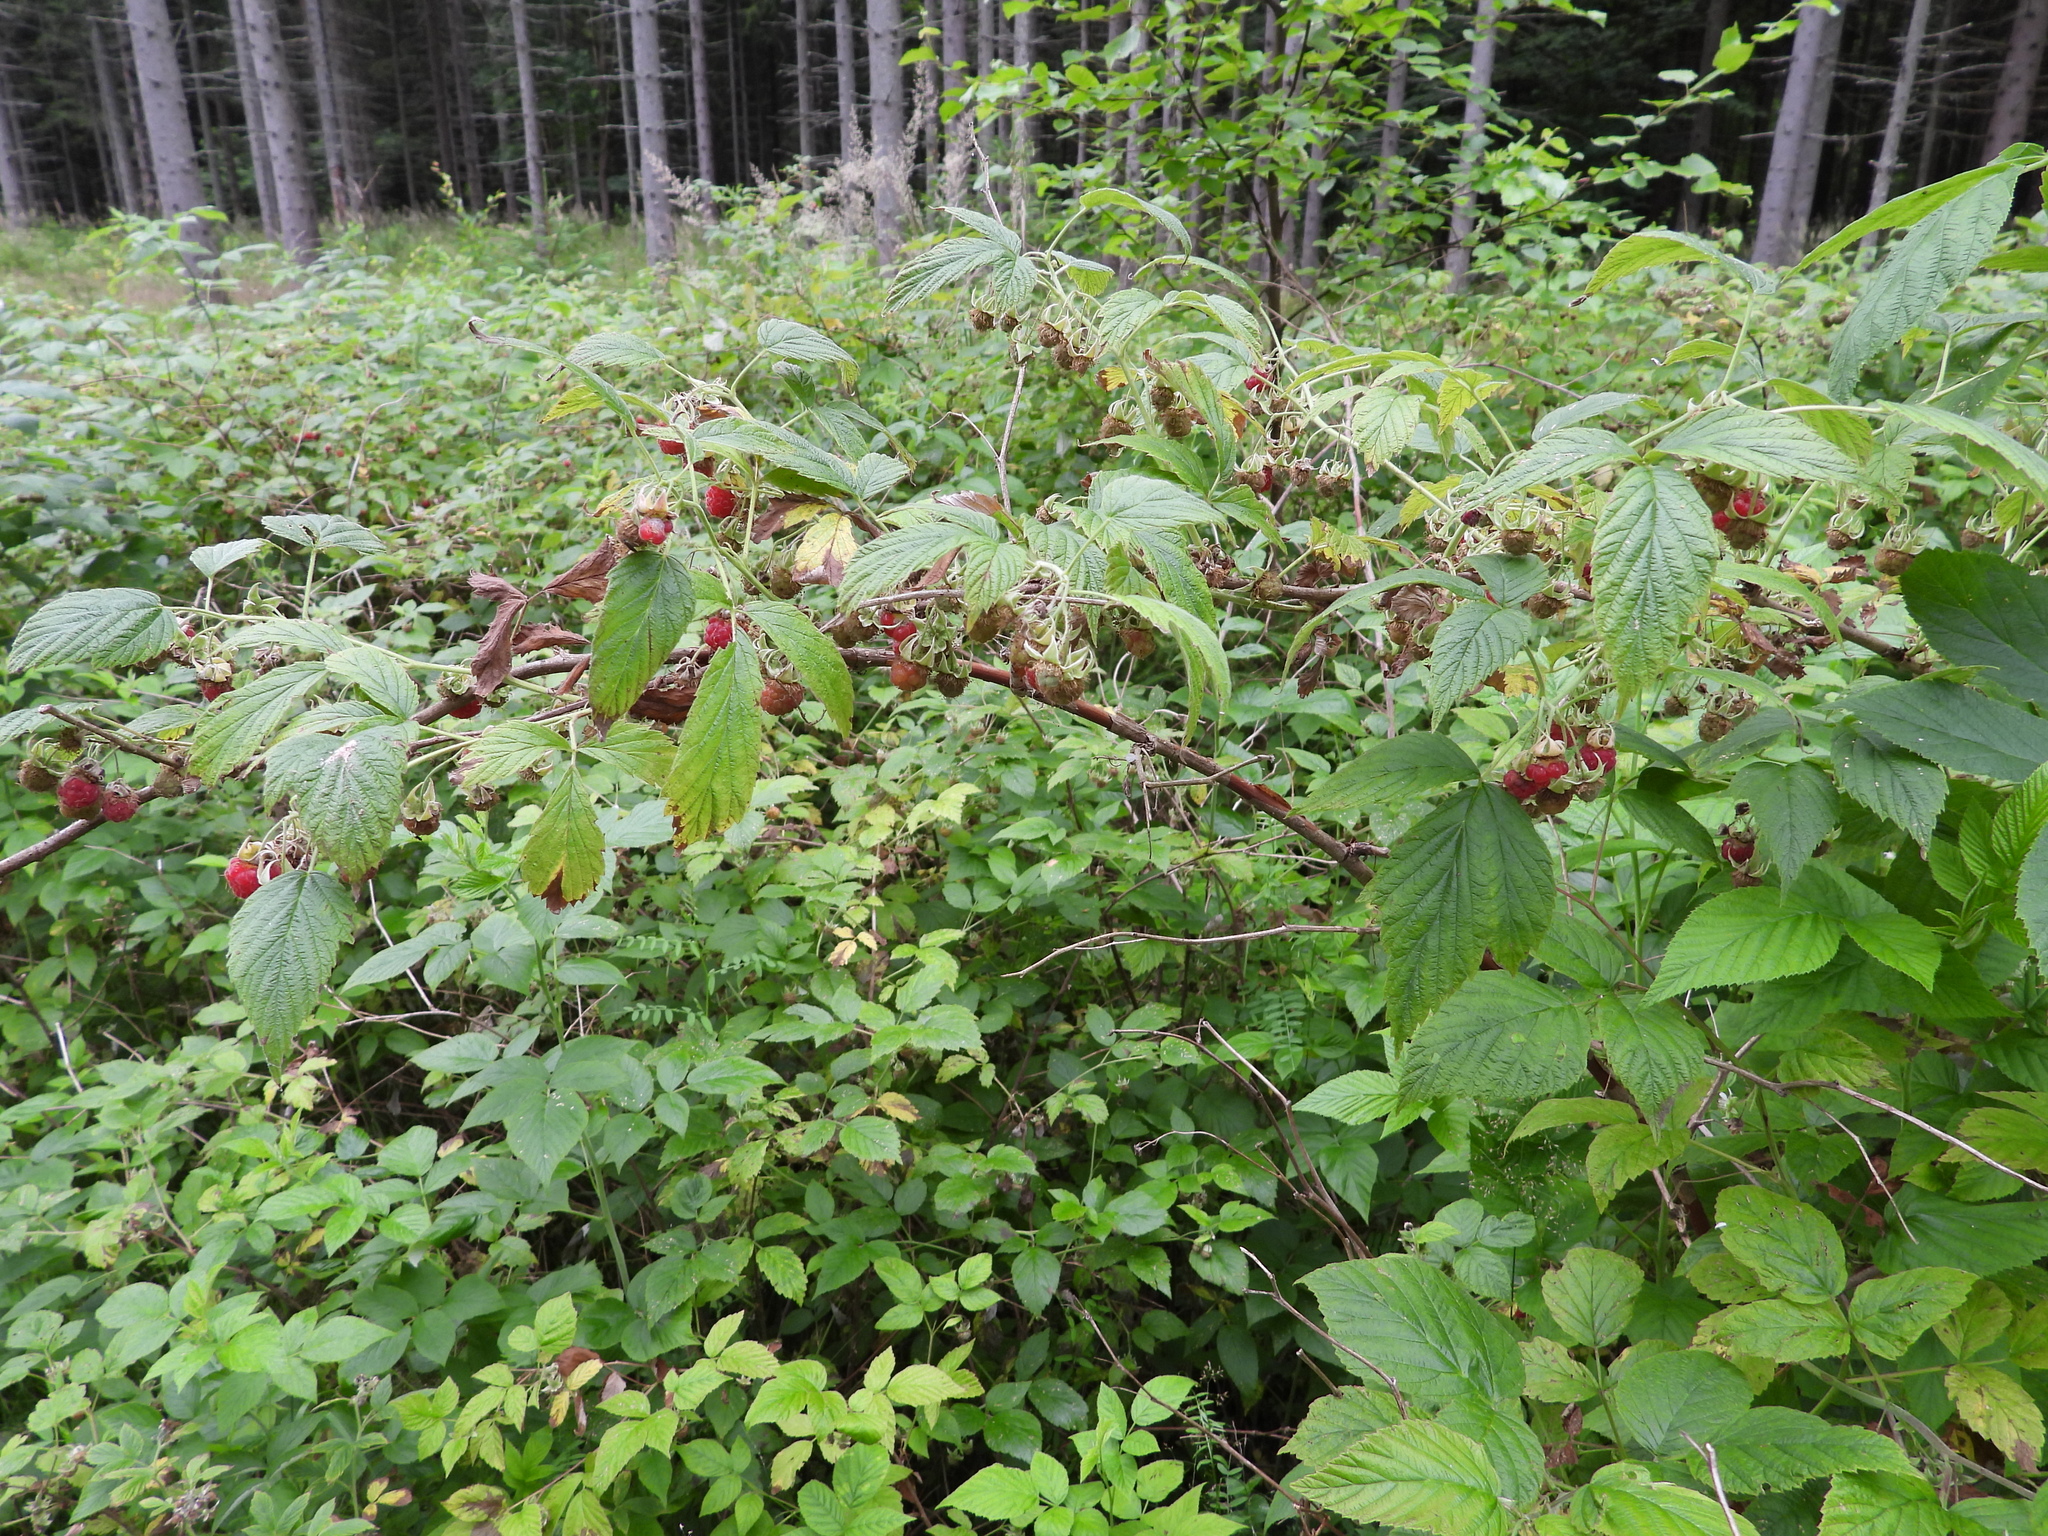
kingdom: Plantae
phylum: Tracheophyta
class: Magnoliopsida
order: Rosales
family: Rosaceae
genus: Rubus
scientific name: Rubus idaeus
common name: Raspberry
